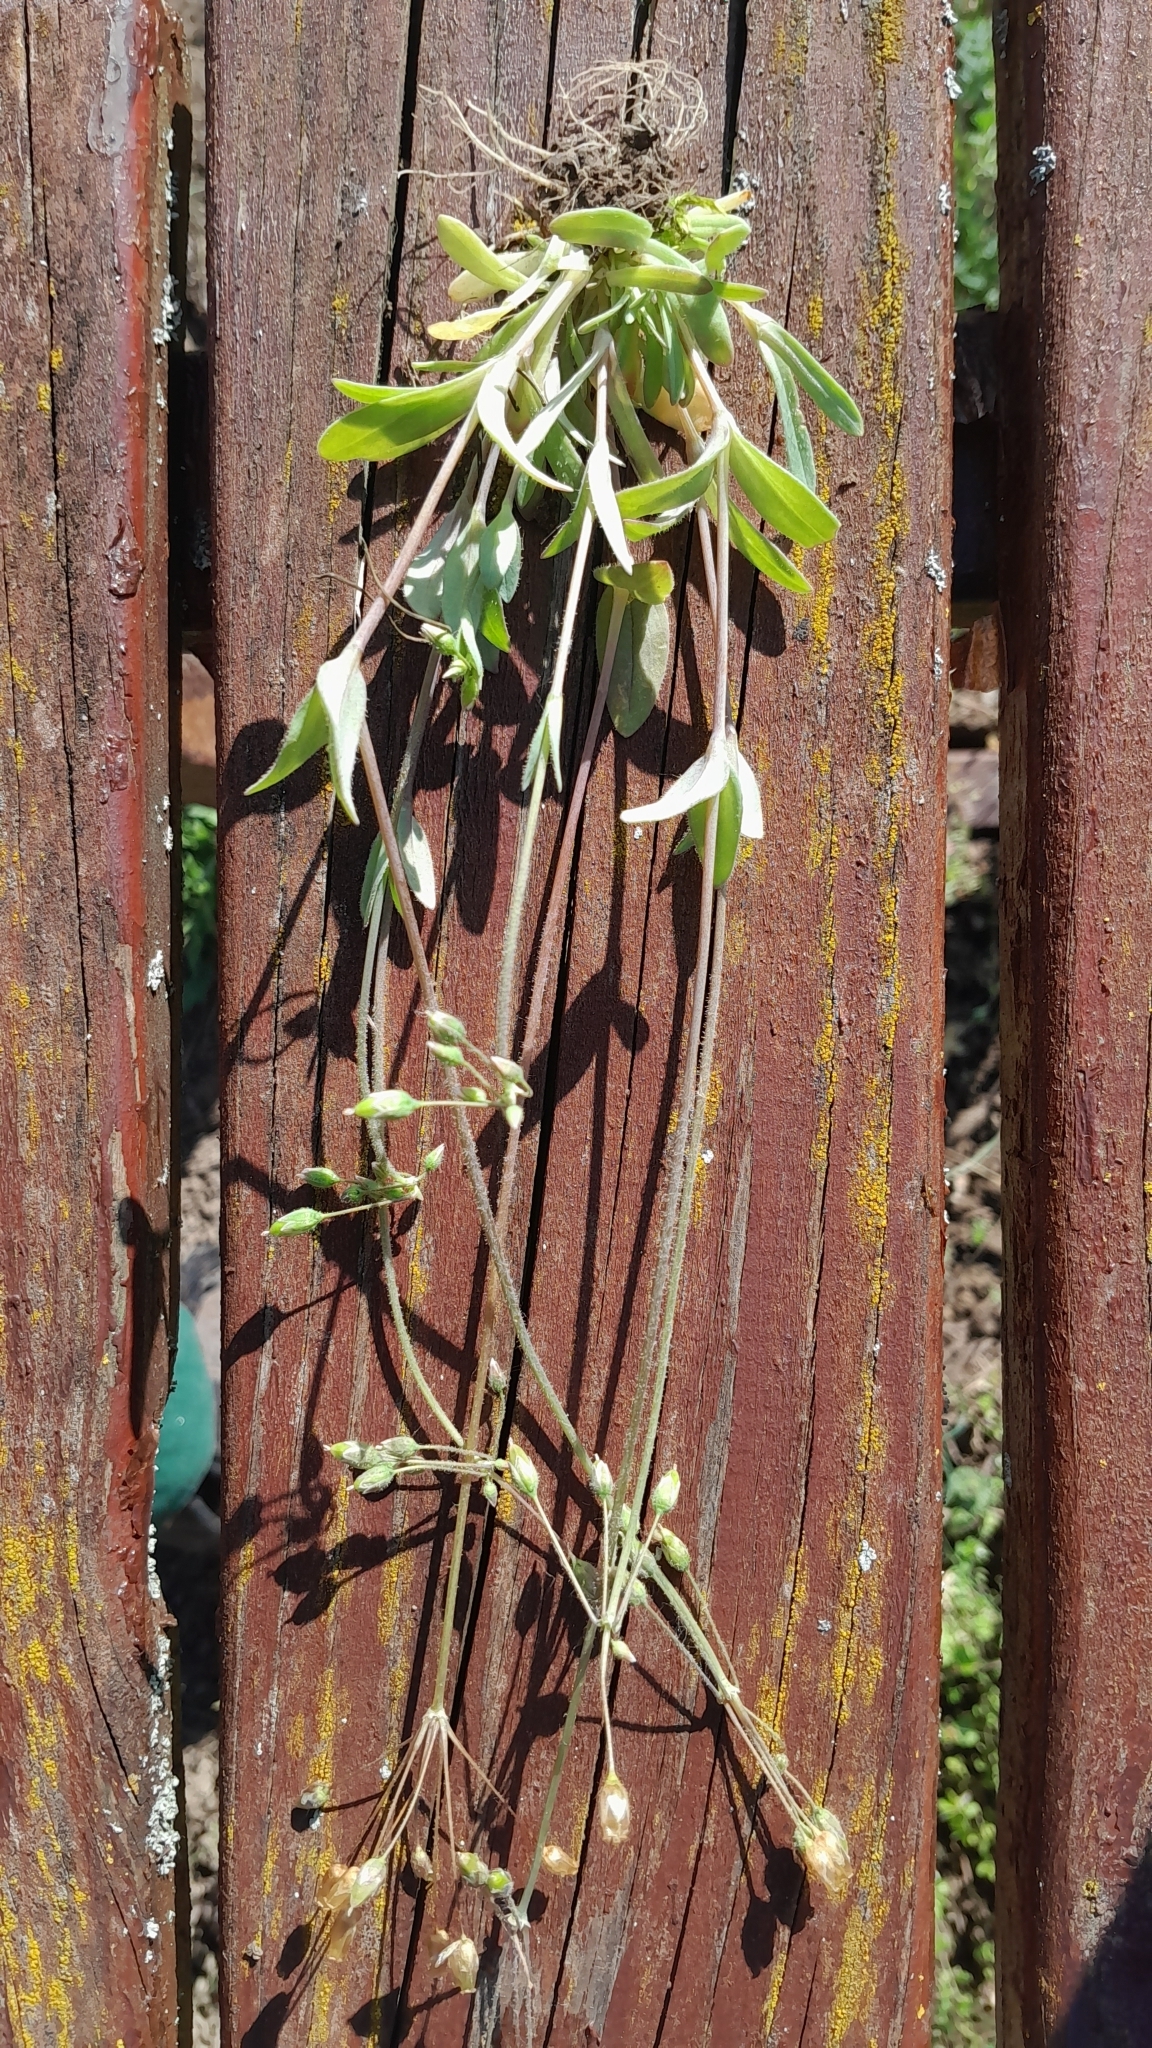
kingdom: Plantae
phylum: Tracheophyta
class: Magnoliopsida
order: Caryophyllales
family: Caryophyllaceae
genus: Holosteum
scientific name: Holosteum umbellatum
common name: Jagged chickweed
